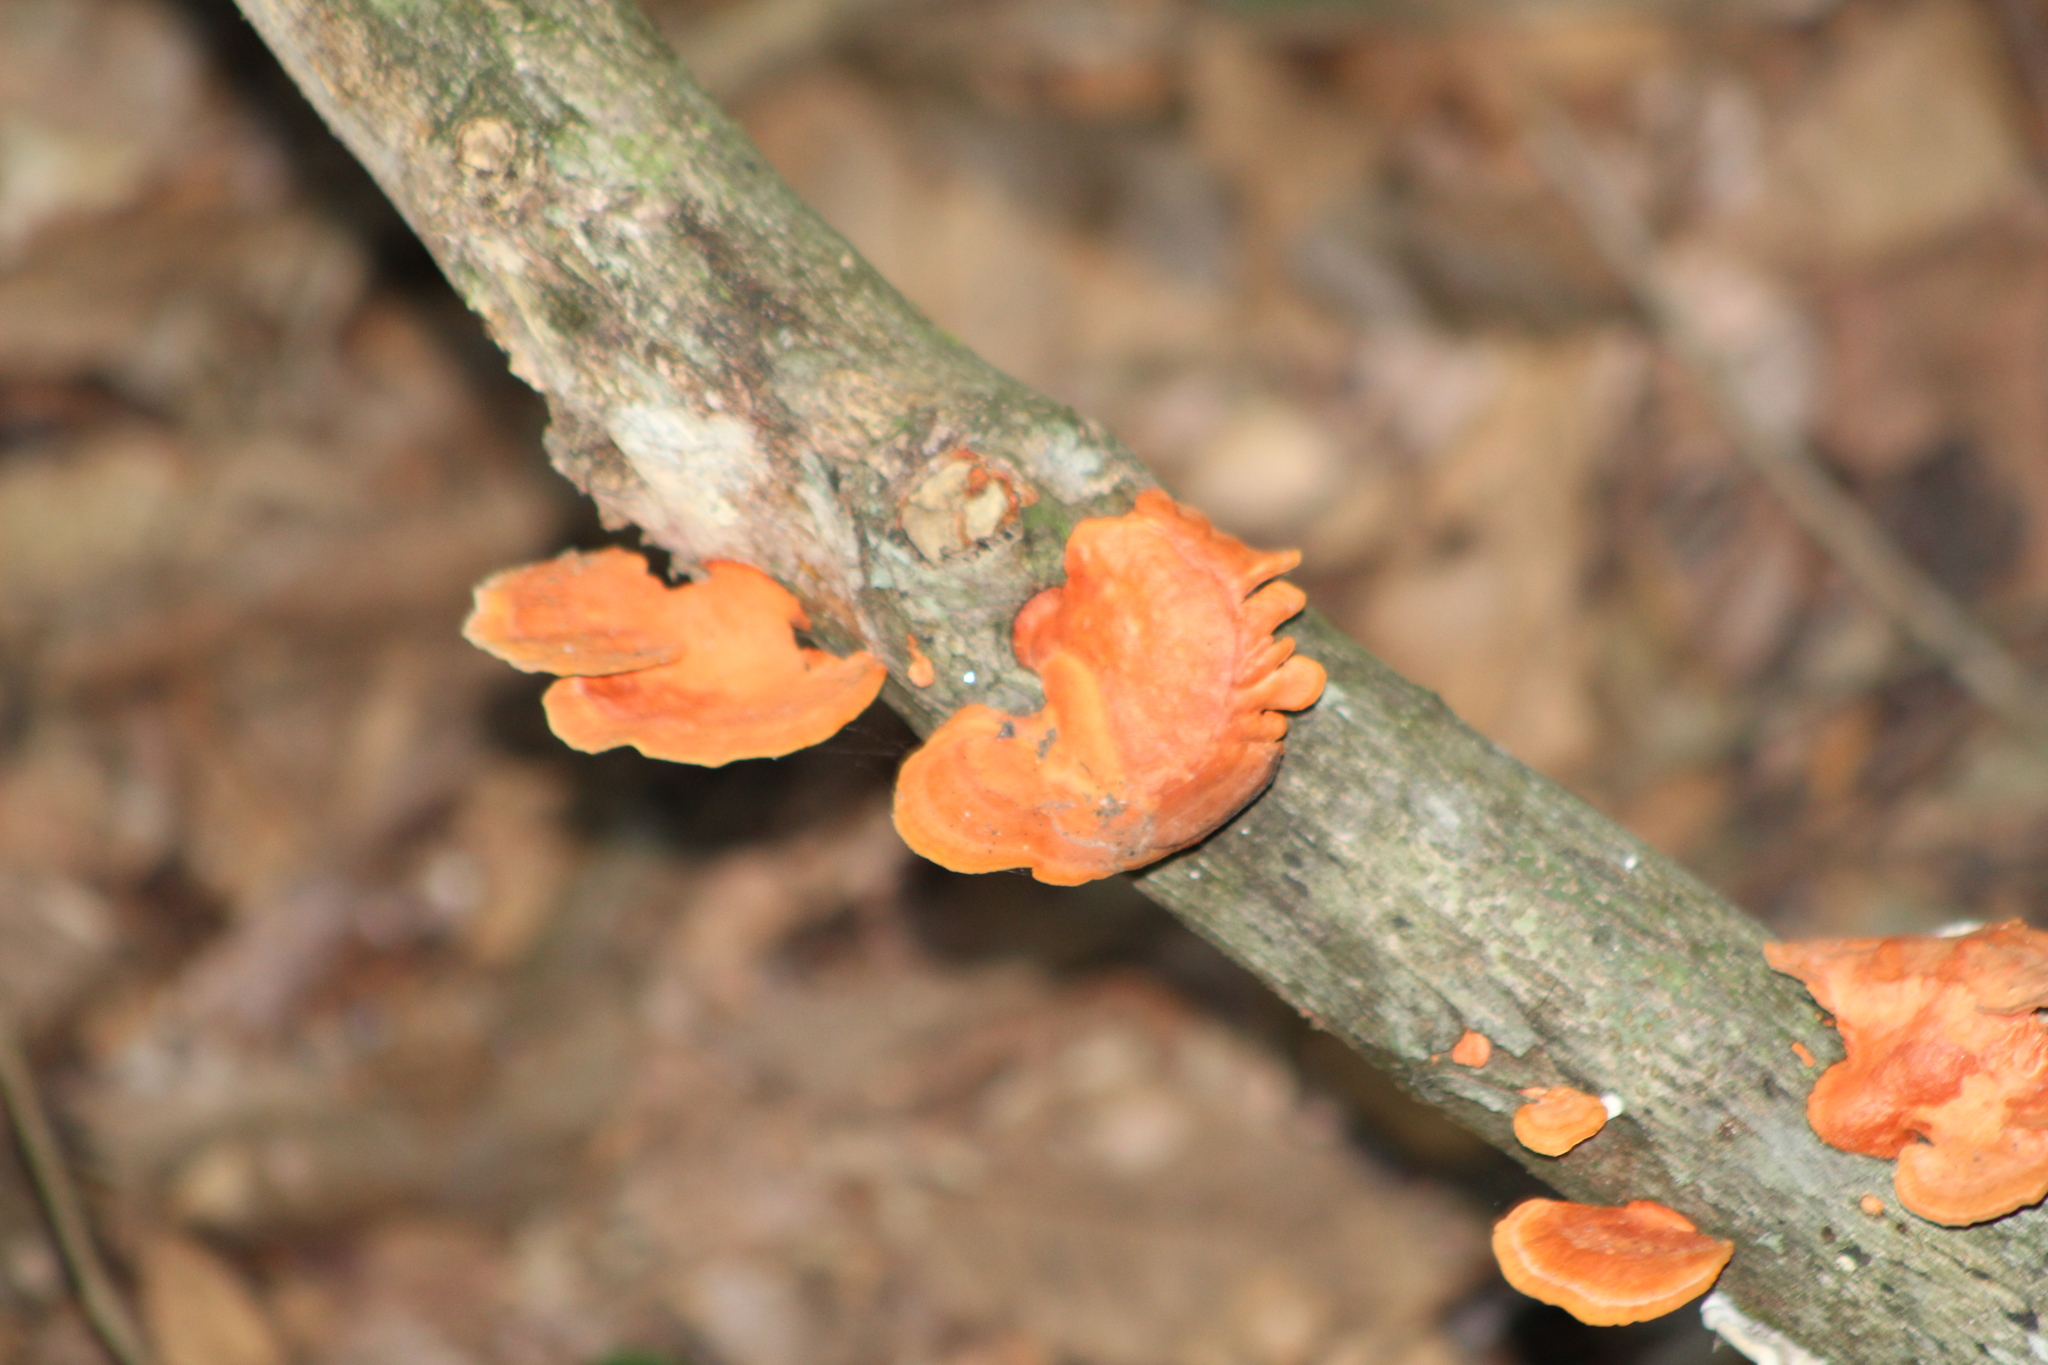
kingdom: Fungi
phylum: Basidiomycota
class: Agaricomycetes
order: Polyporales
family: Polyporaceae
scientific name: Polyporaceae
